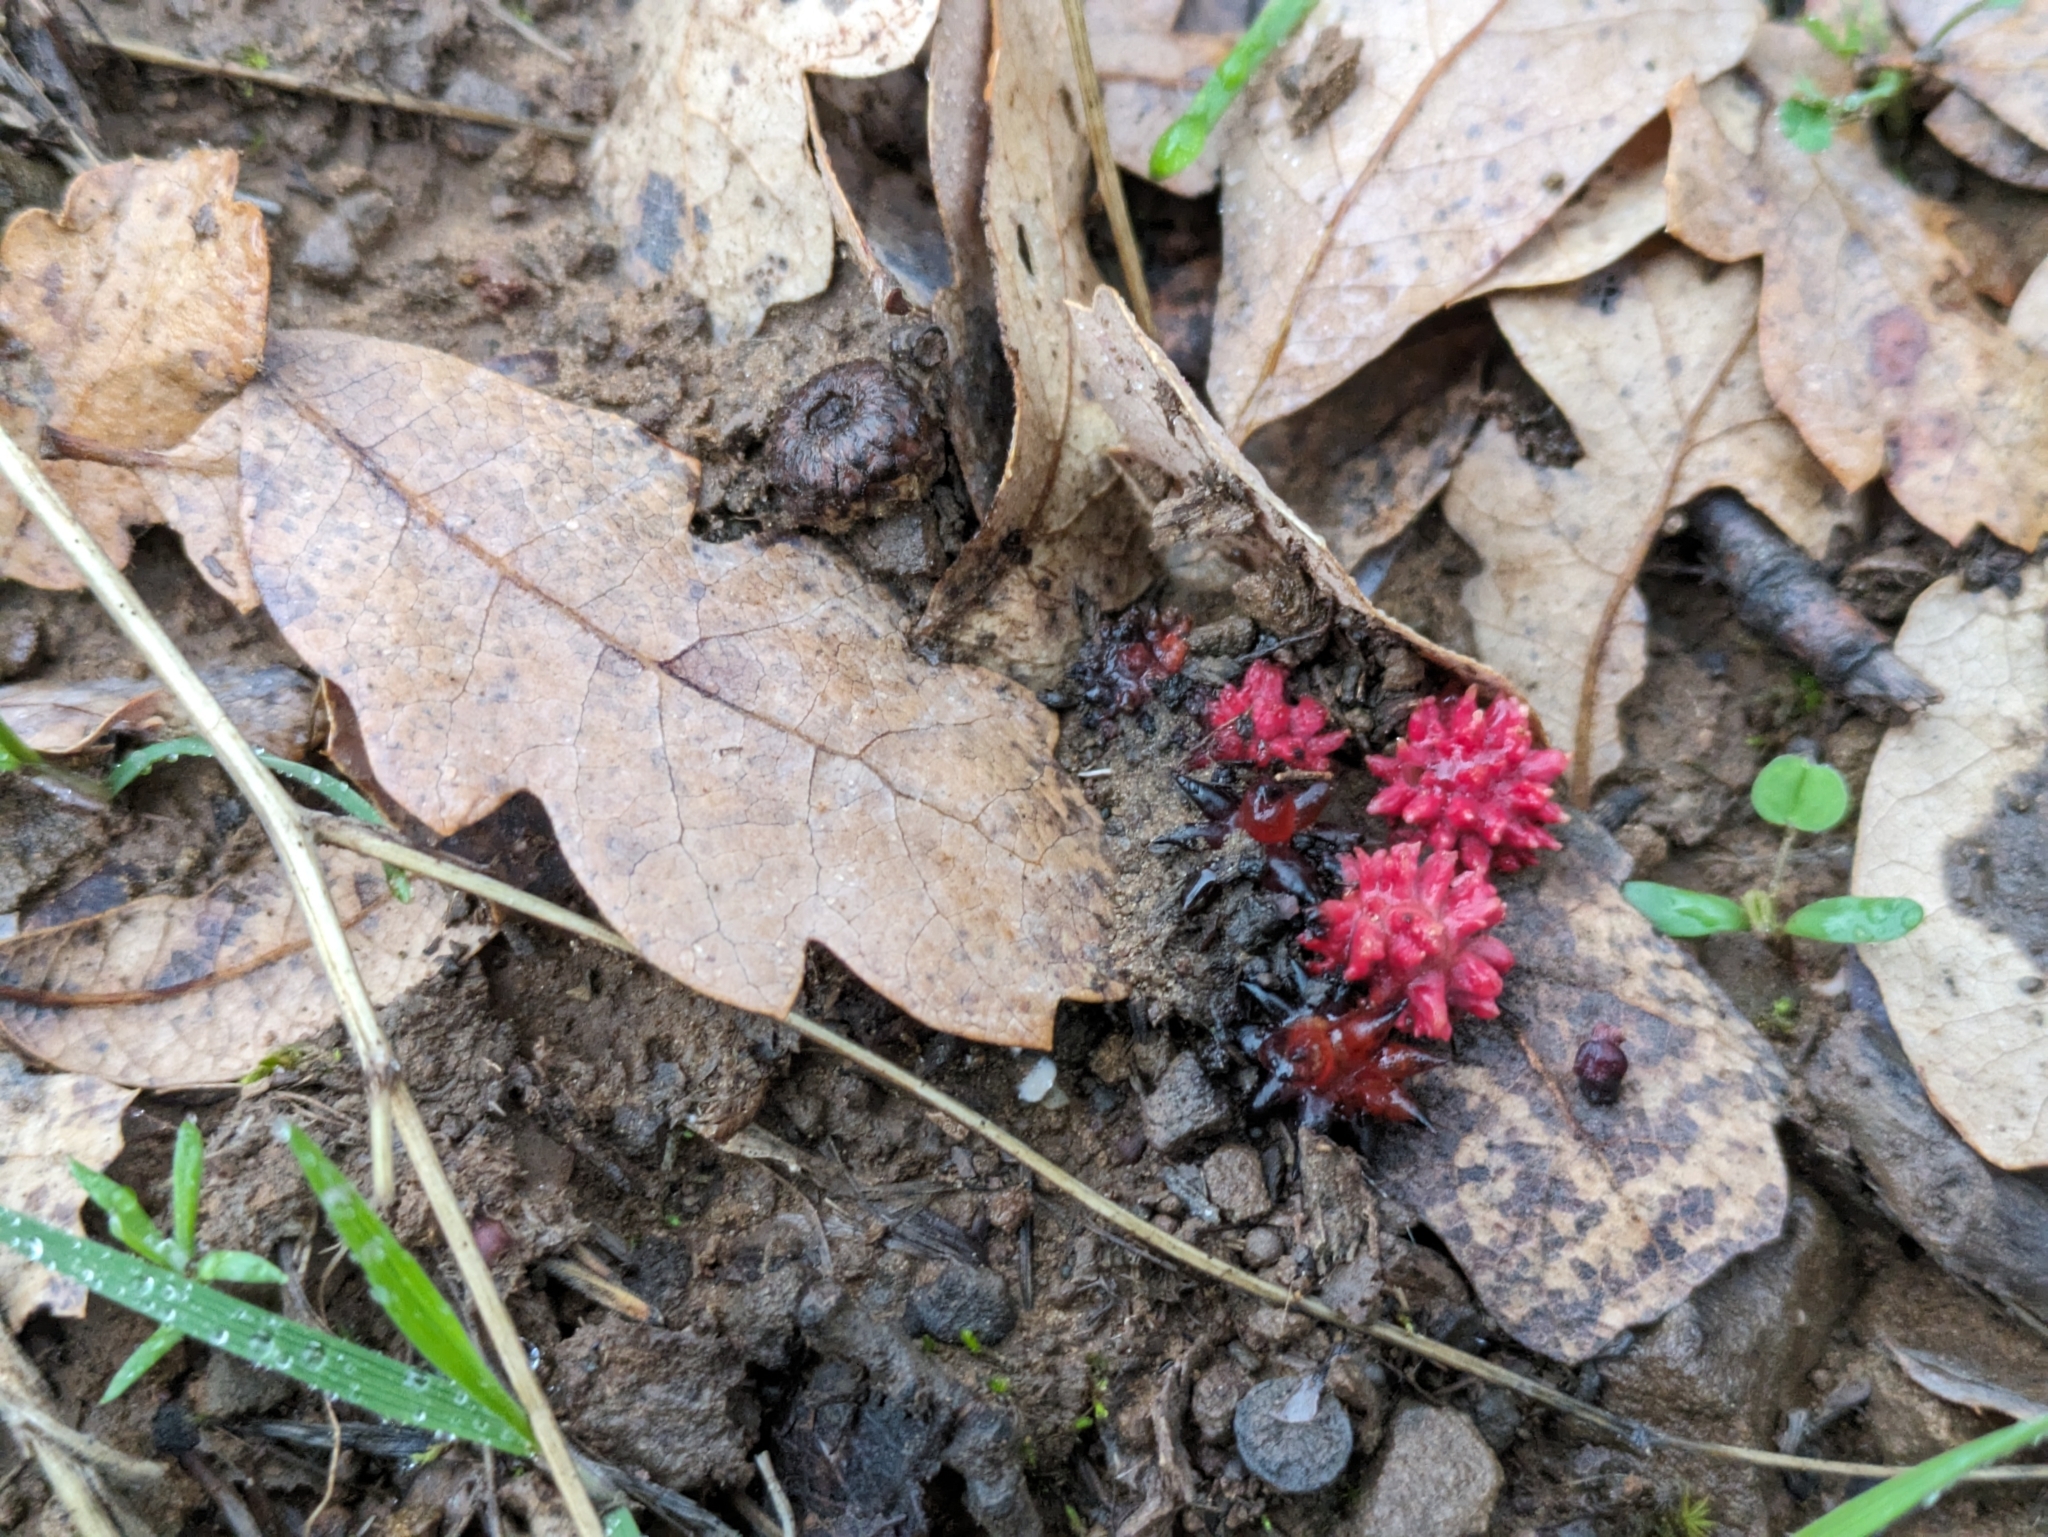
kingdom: Animalia
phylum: Arthropoda
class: Insecta
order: Hymenoptera
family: Cynipidae
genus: Cynips
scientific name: Cynips
